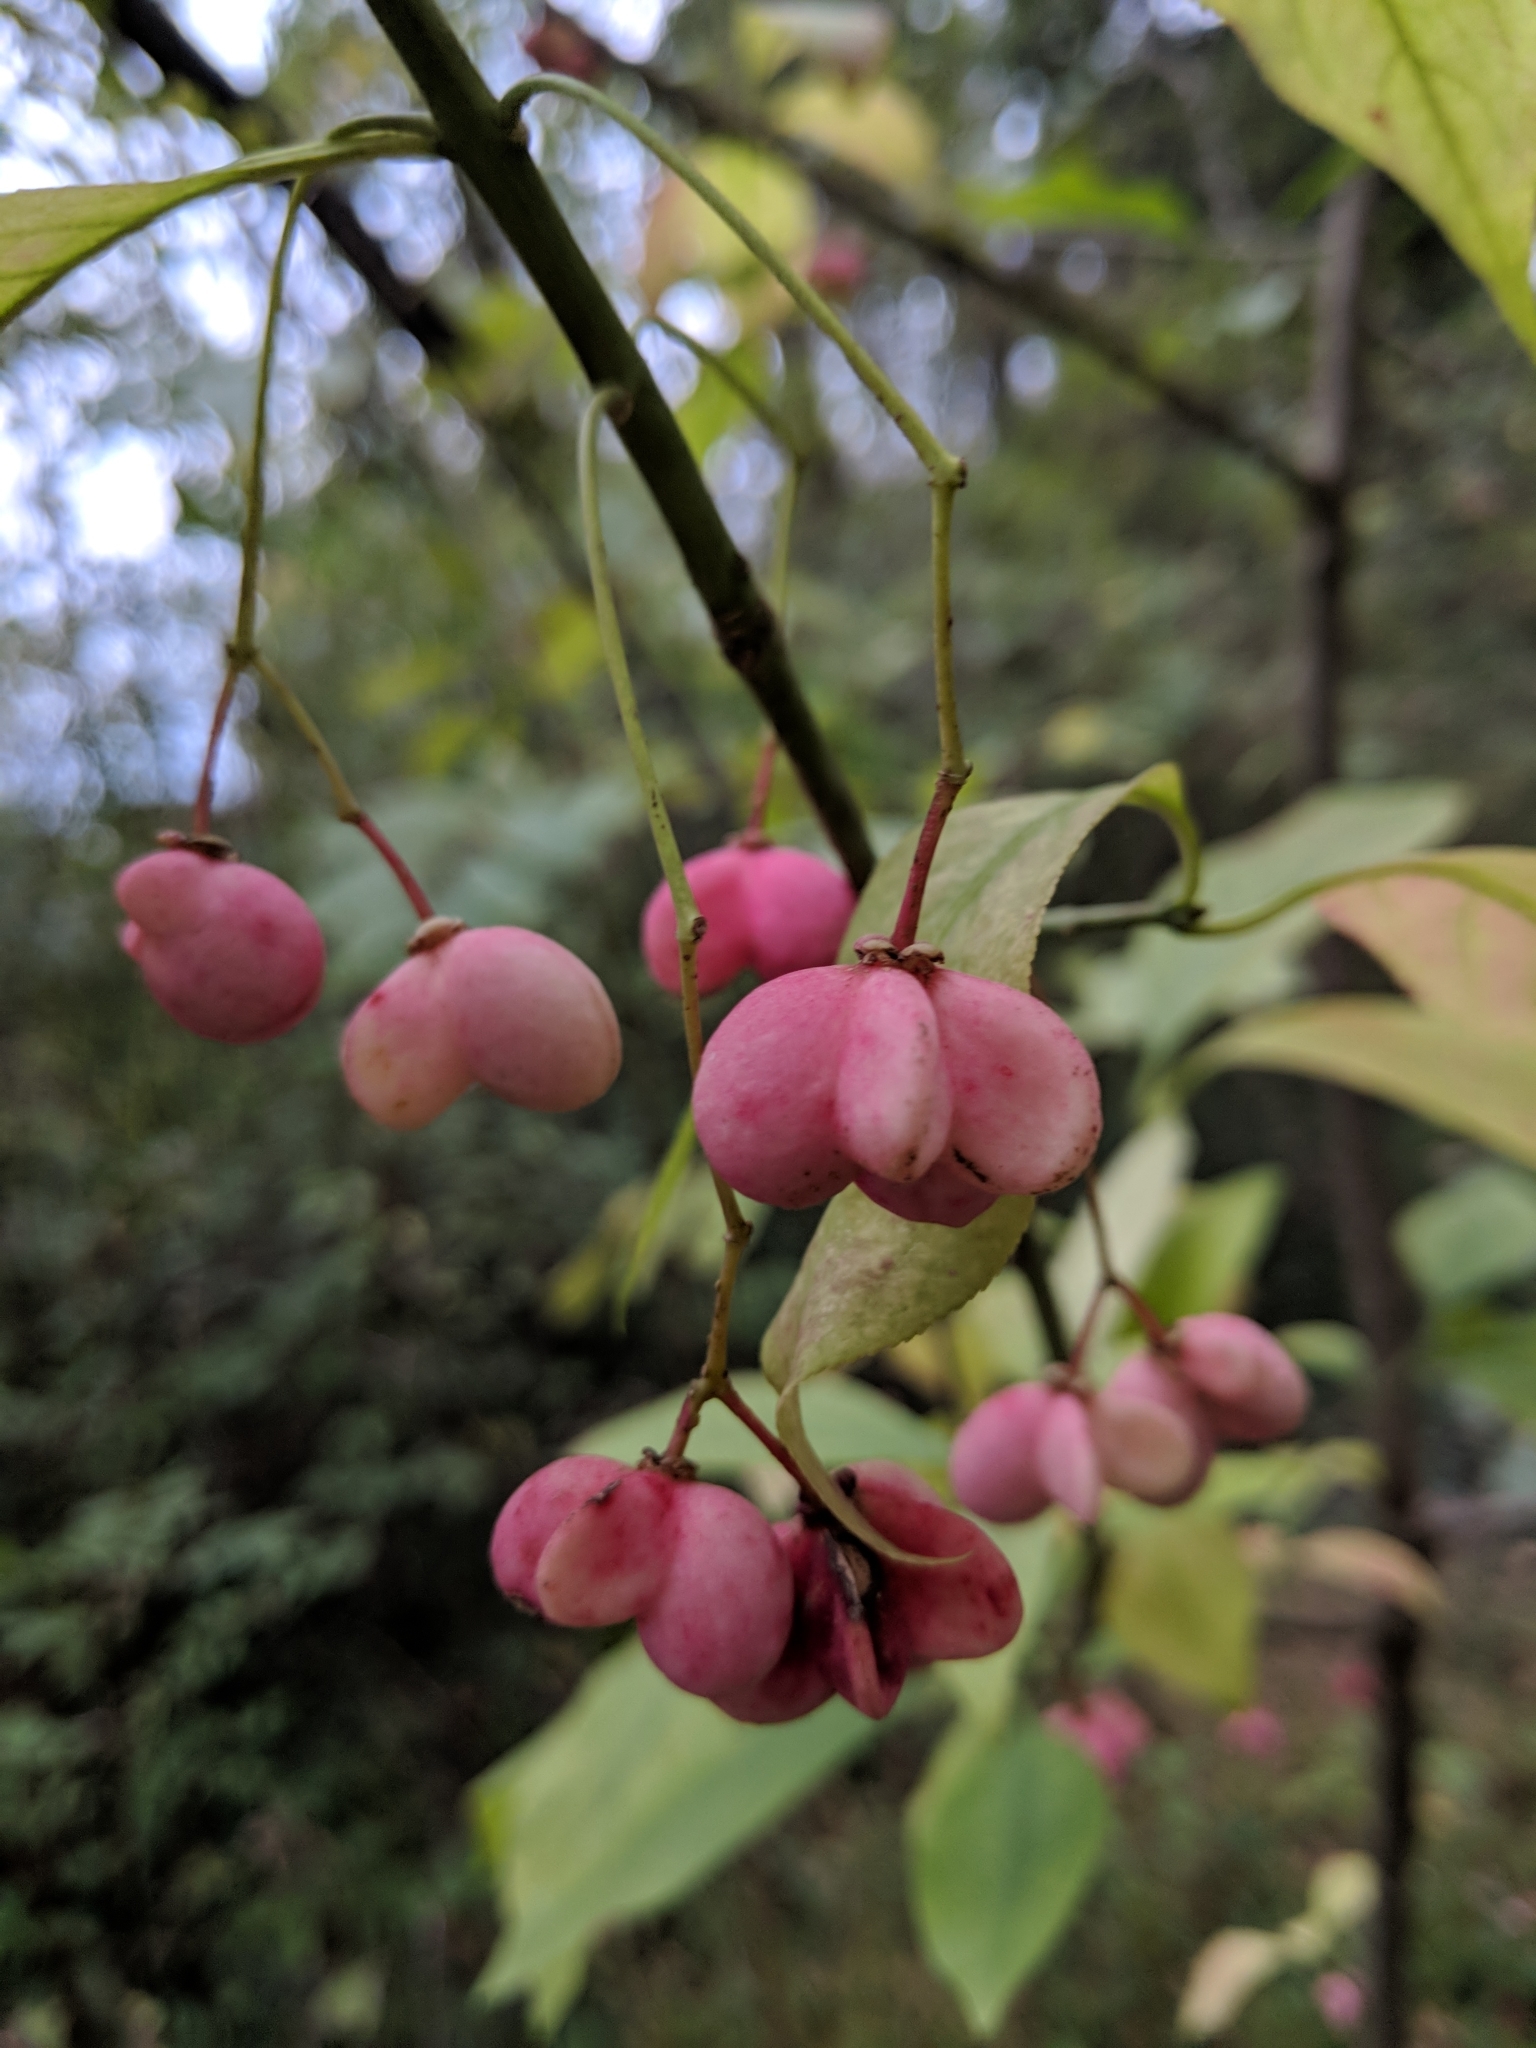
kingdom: Plantae
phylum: Tracheophyta
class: Magnoliopsida
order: Celastrales
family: Celastraceae
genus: Euonymus
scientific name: Euonymus atropurpureus
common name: Eastern wahoo
